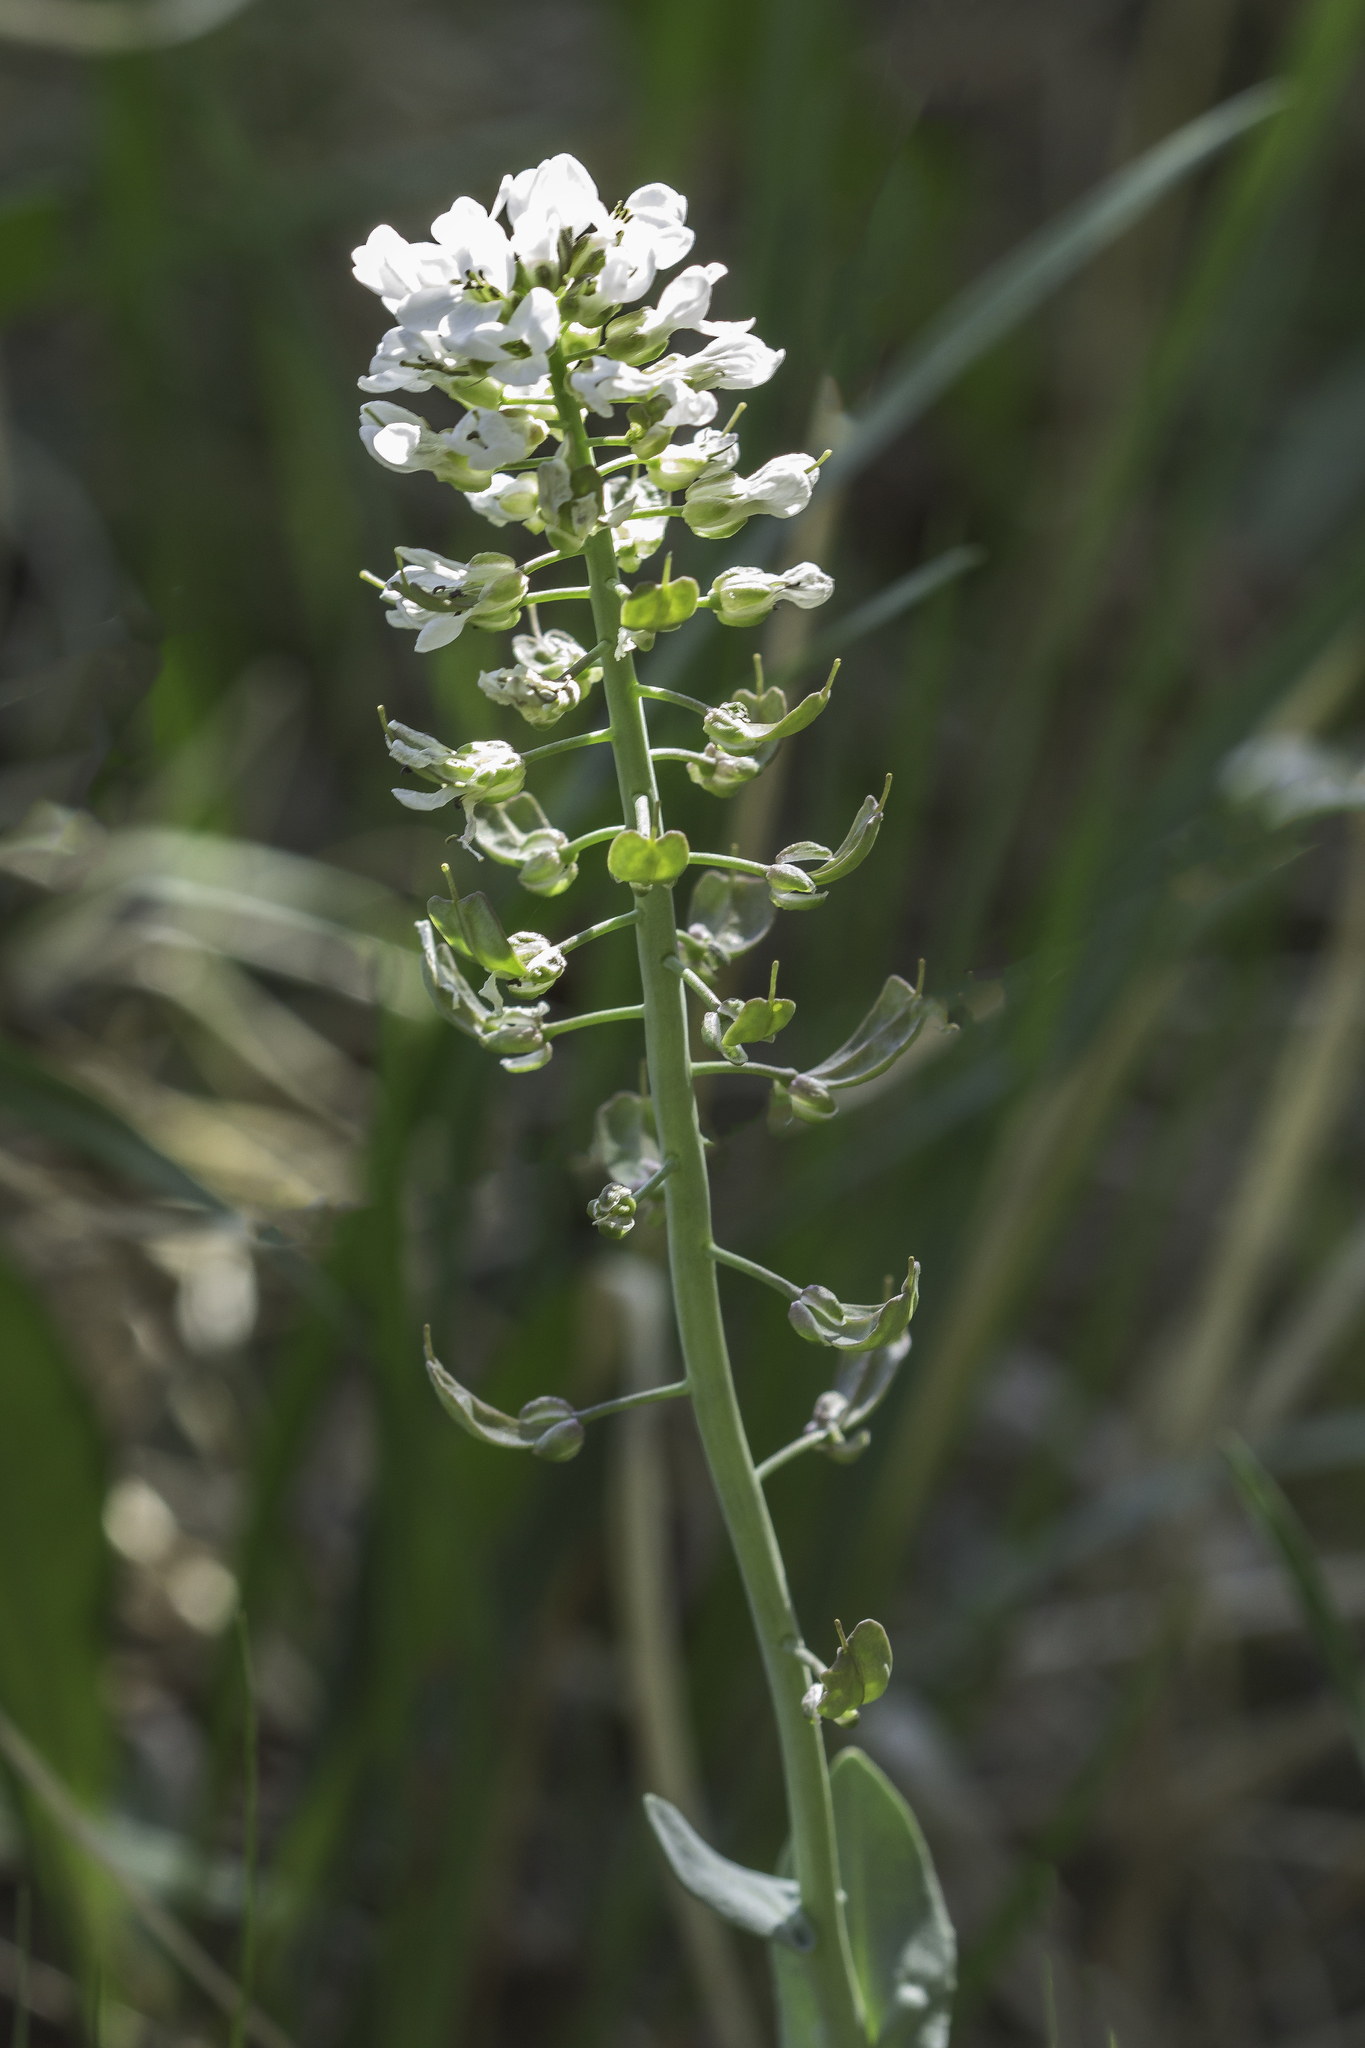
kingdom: Plantae
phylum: Tracheophyta
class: Magnoliopsida
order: Brassicales
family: Brassicaceae
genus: Noccaea
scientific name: Noccaea fendleri
